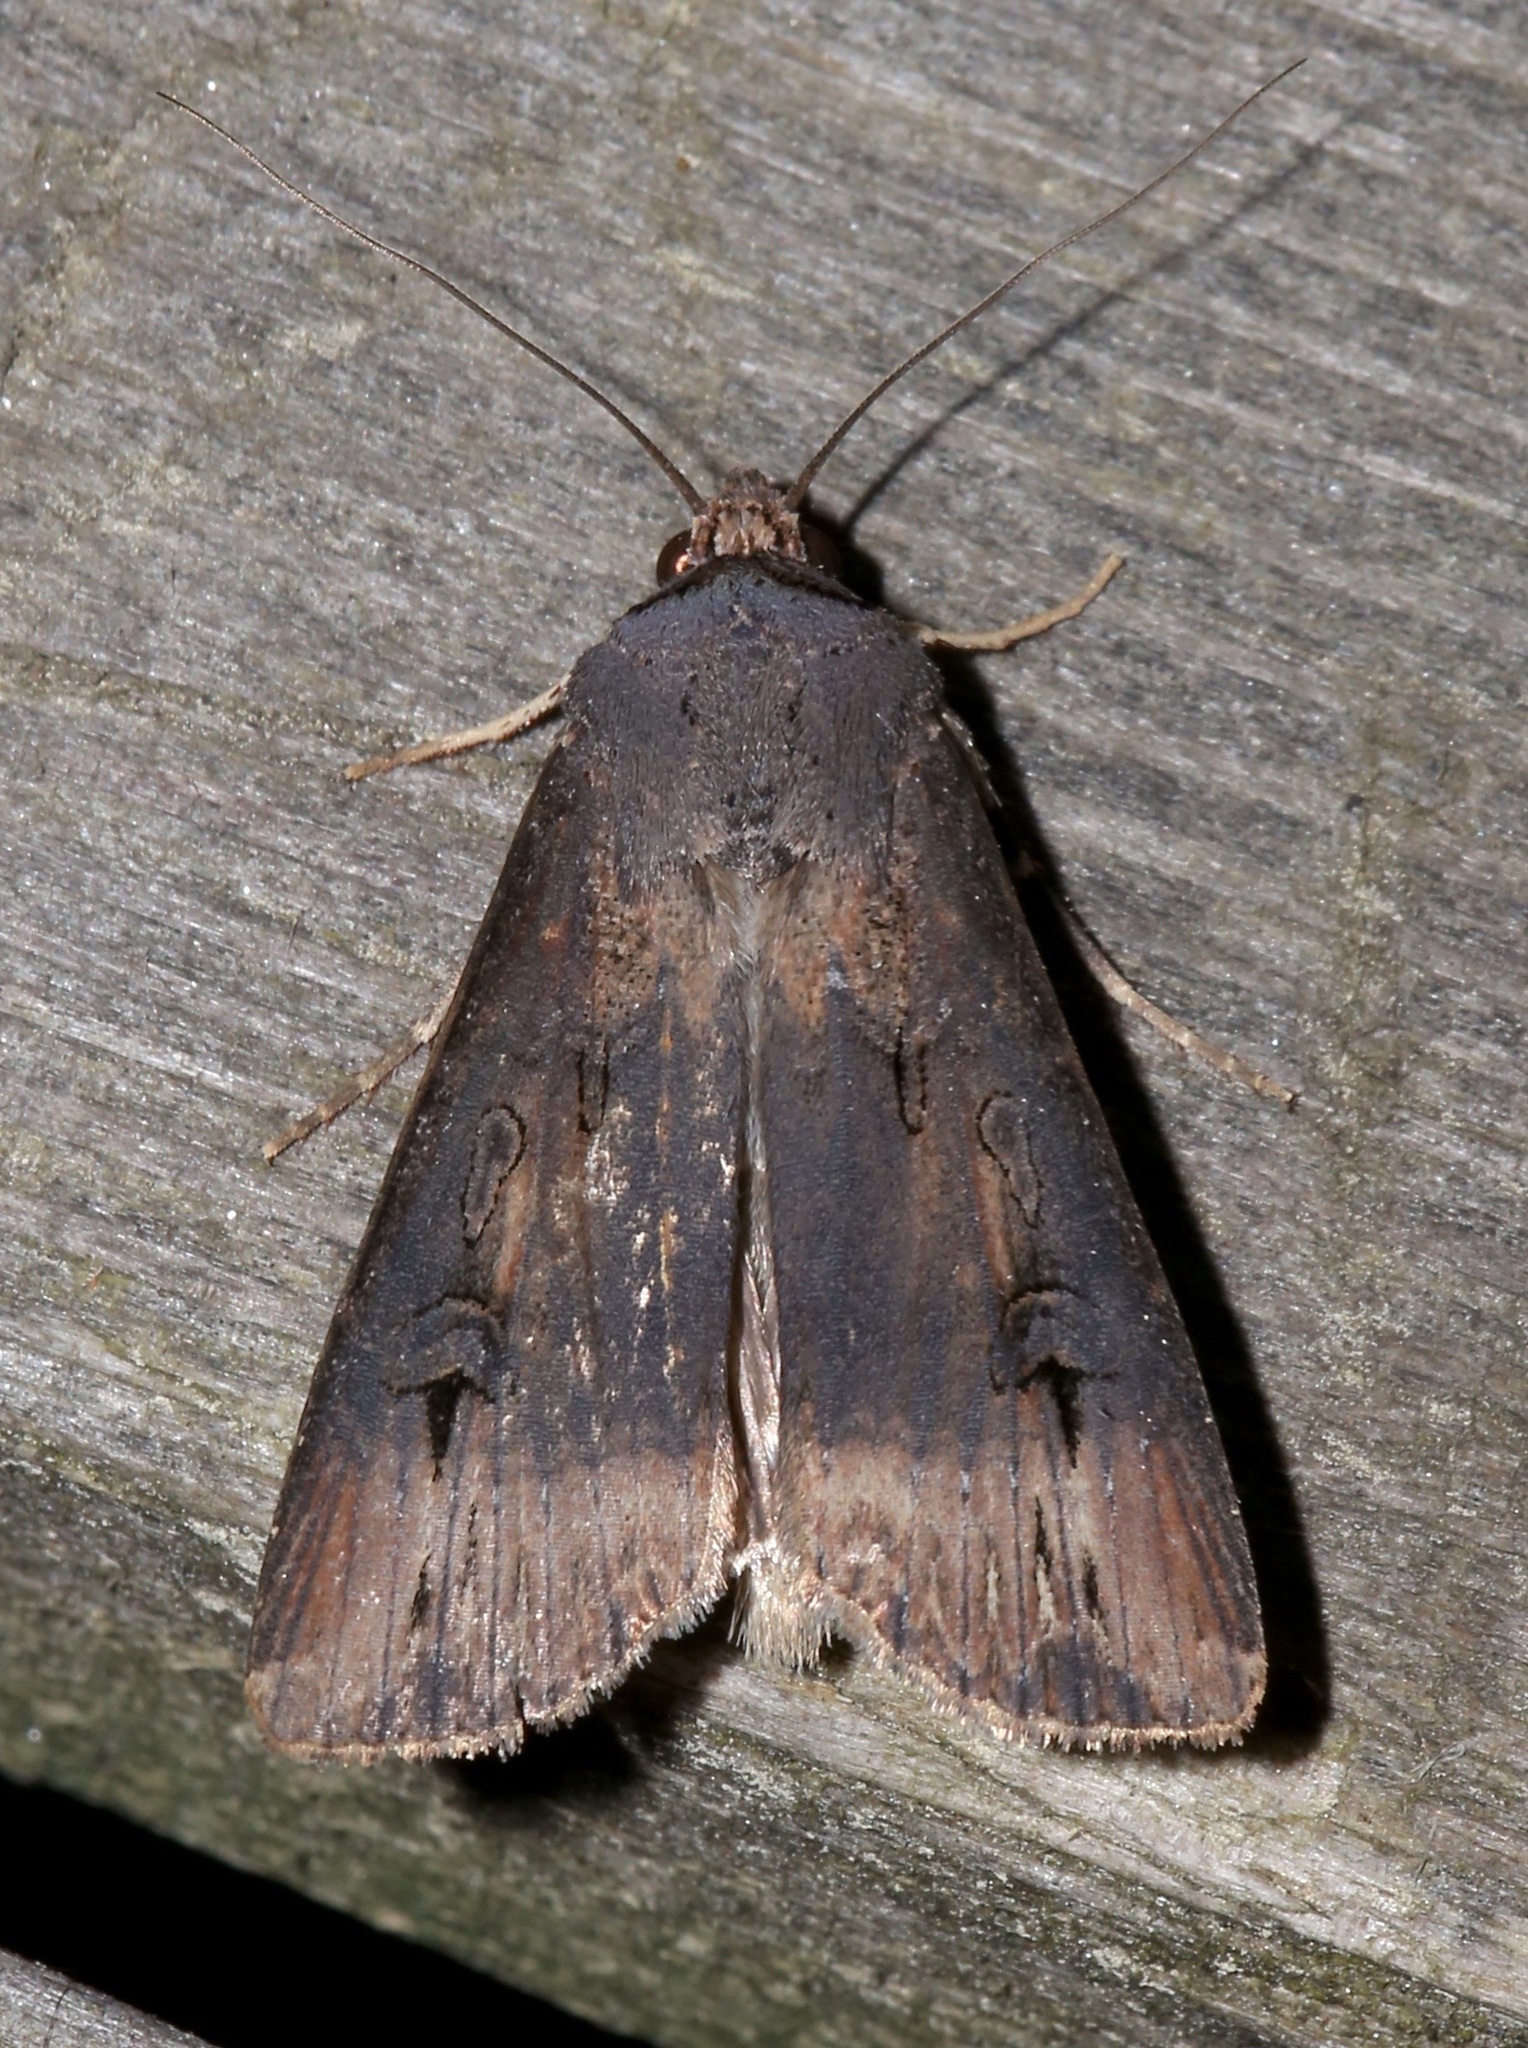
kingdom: Animalia
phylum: Arthropoda
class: Insecta
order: Lepidoptera
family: Noctuidae
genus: Agrotis
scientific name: Agrotis ipsilon
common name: Dark sword-grass
